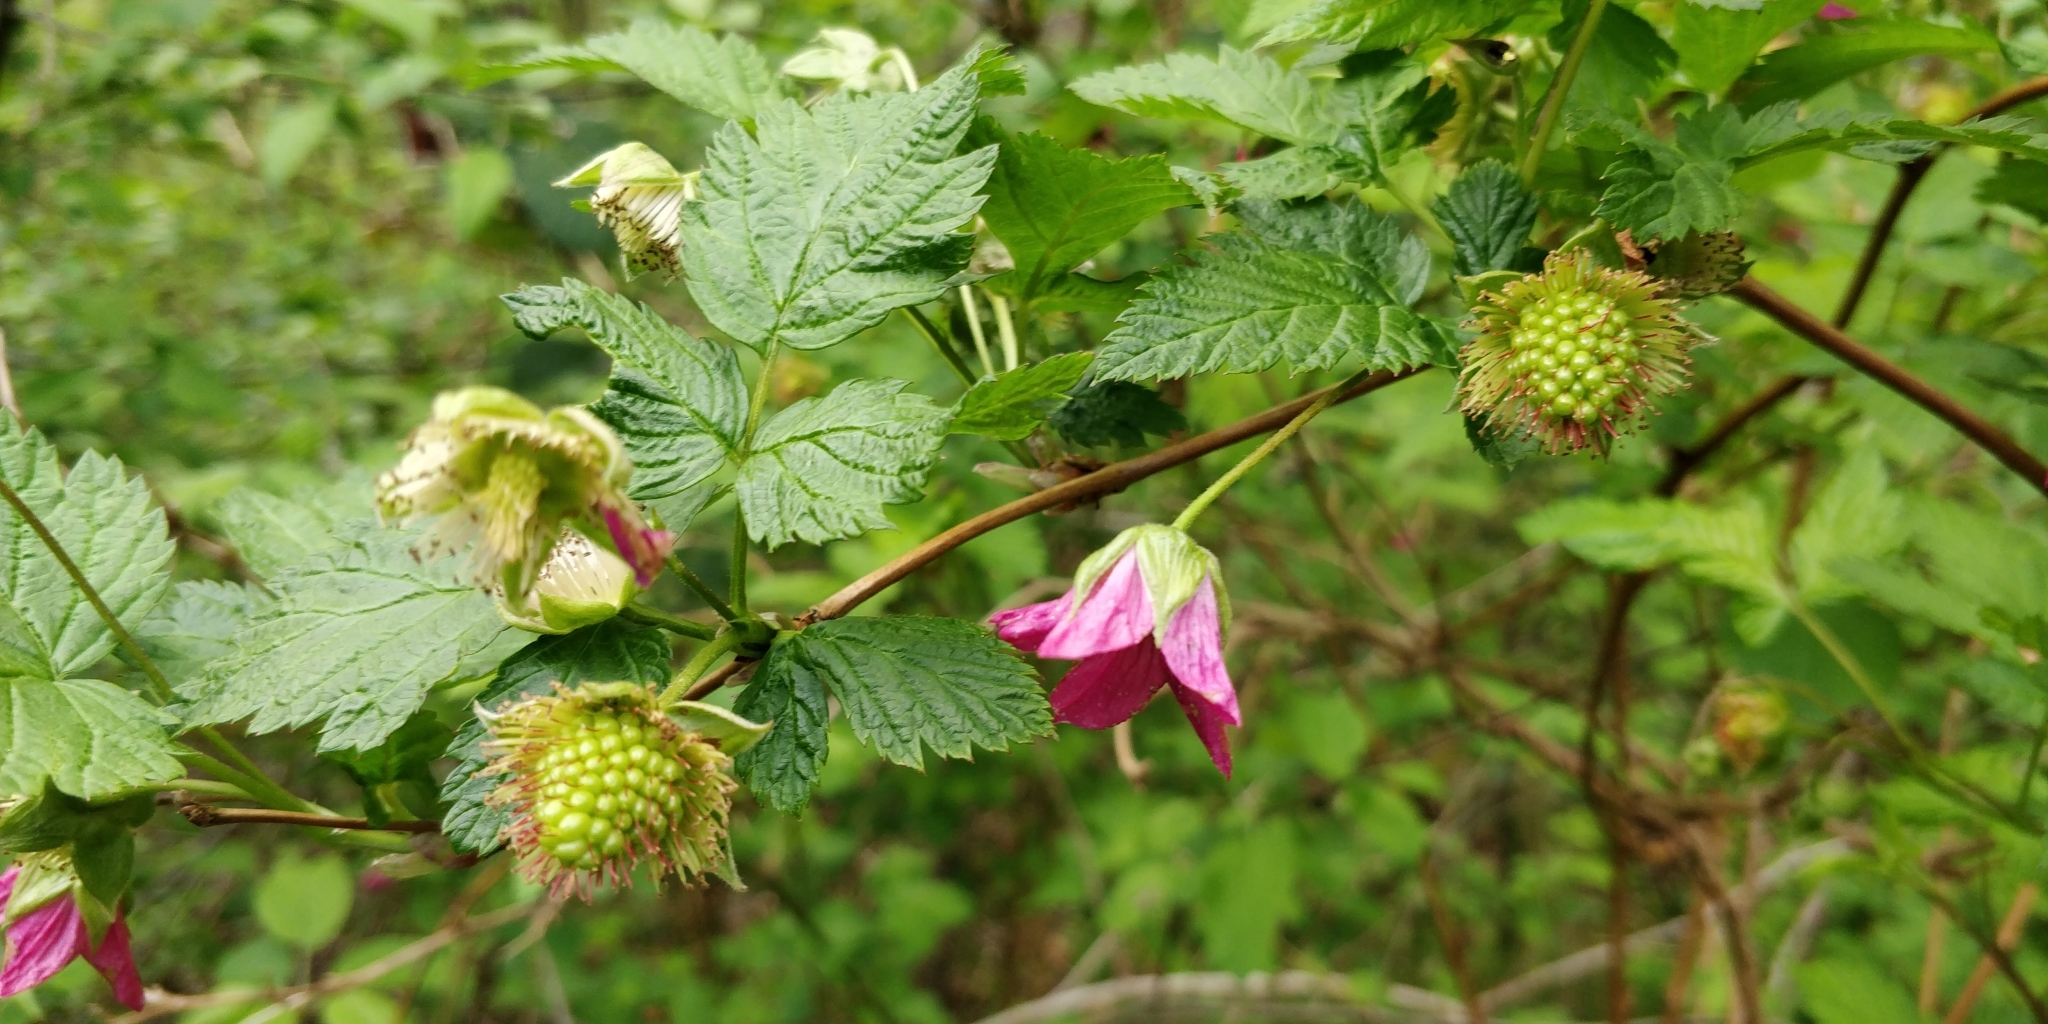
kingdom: Plantae
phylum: Tracheophyta
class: Magnoliopsida
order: Rosales
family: Rosaceae
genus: Rubus
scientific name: Rubus spectabilis
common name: Salmonberry
